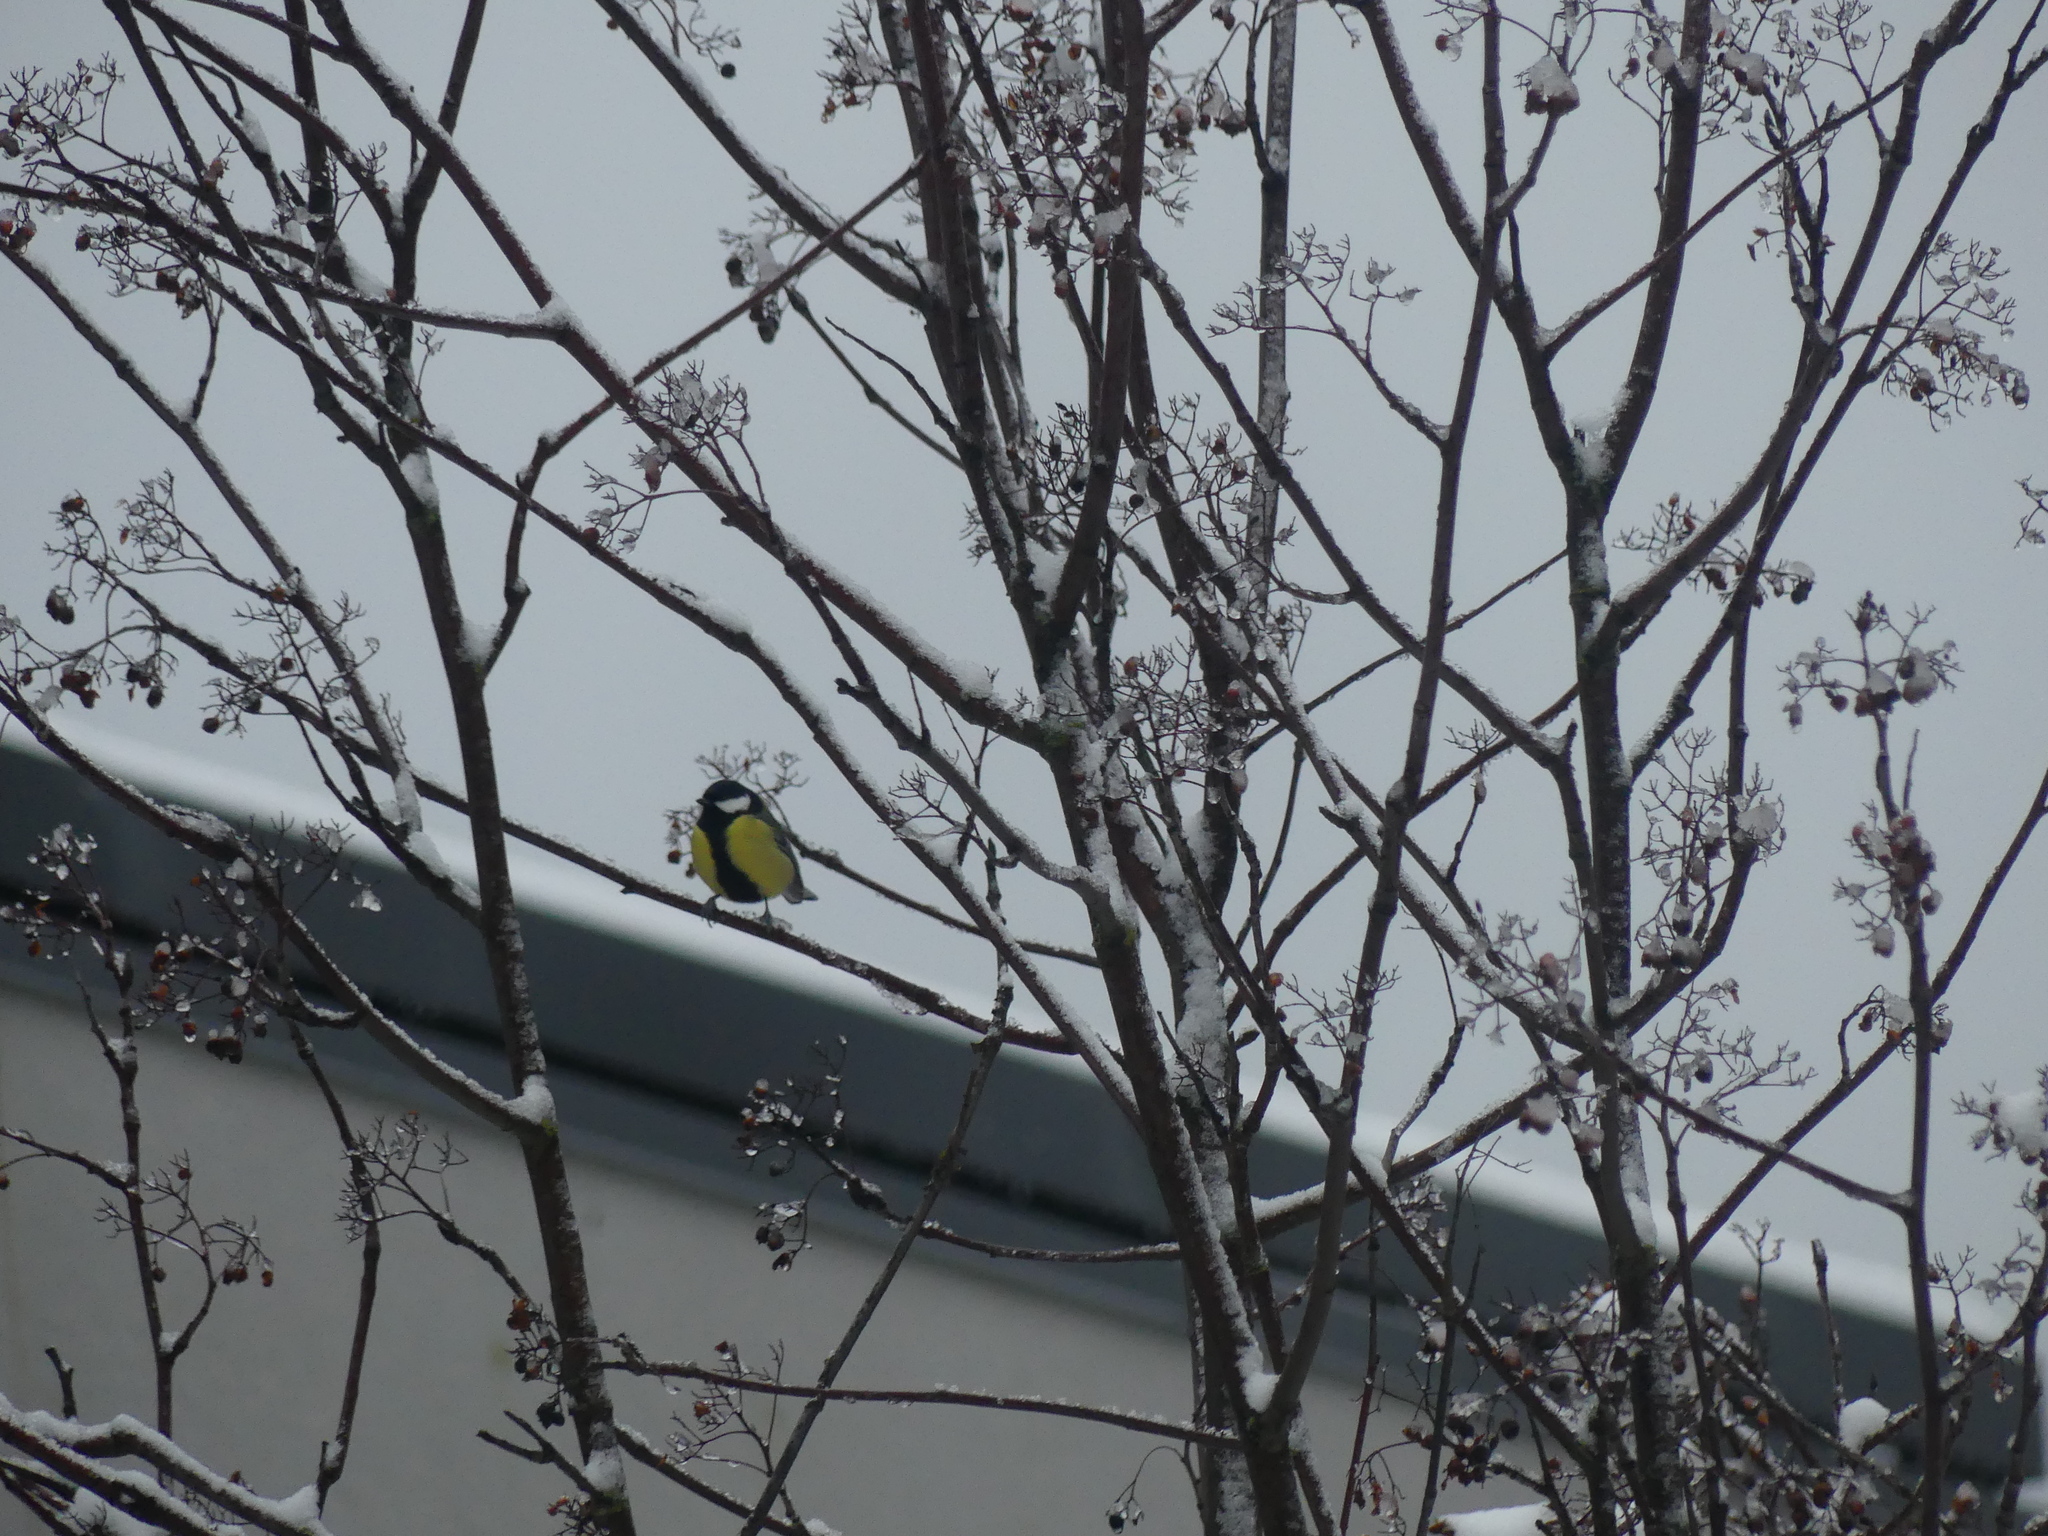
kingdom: Animalia
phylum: Chordata
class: Aves
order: Passeriformes
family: Paridae
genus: Parus
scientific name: Parus major
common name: Great tit
